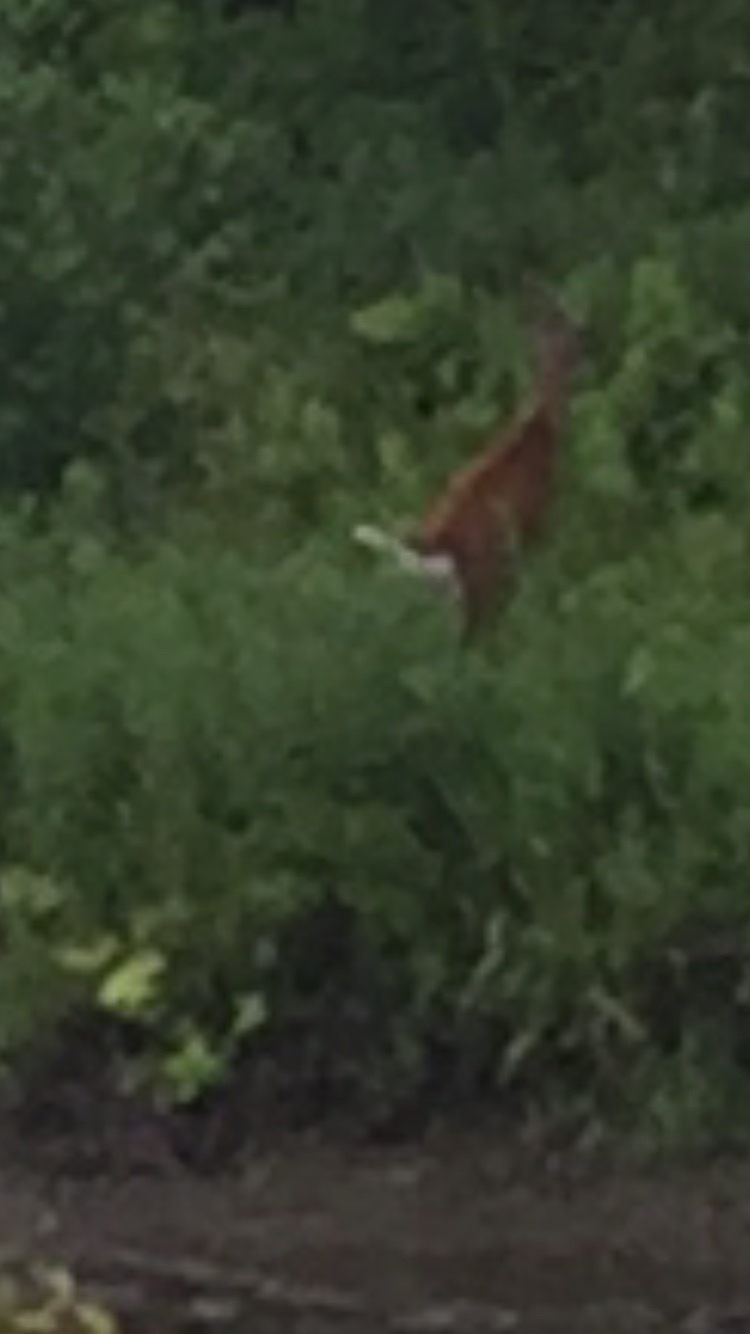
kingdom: Animalia
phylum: Chordata
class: Mammalia
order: Artiodactyla
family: Cervidae
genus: Odocoileus
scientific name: Odocoileus virginianus
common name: White-tailed deer
